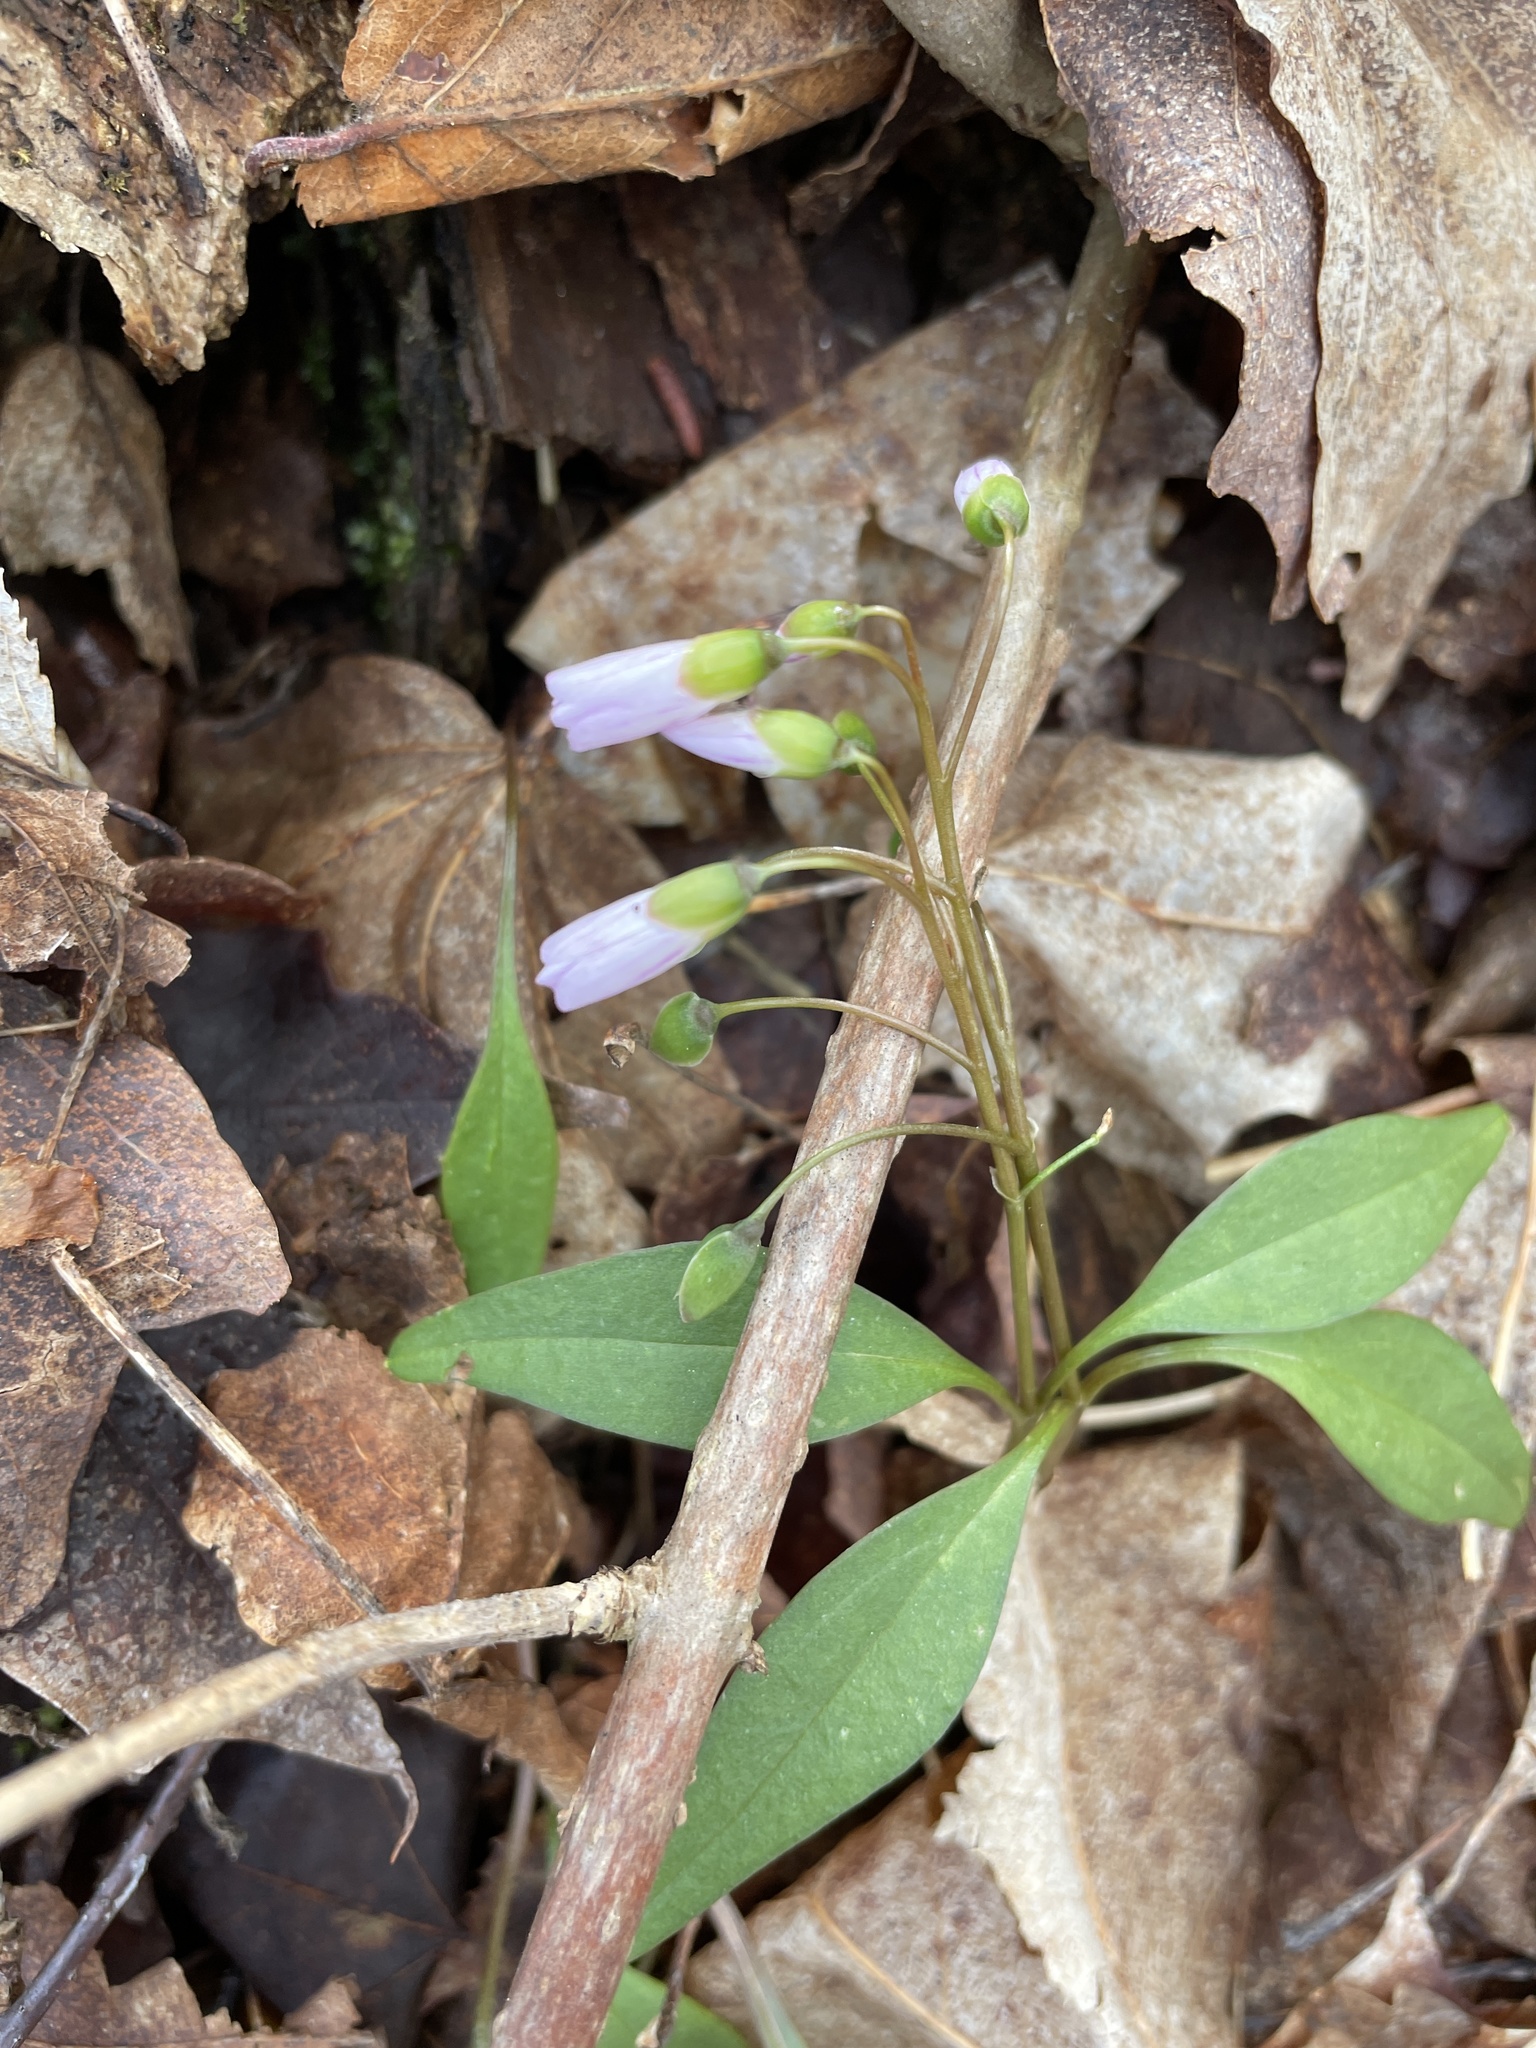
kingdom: Plantae
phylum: Tracheophyta
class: Magnoliopsida
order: Caryophyllales
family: Montiaceae
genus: Claytonia
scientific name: Claytonia caroliniana
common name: Carolina spring beauty
